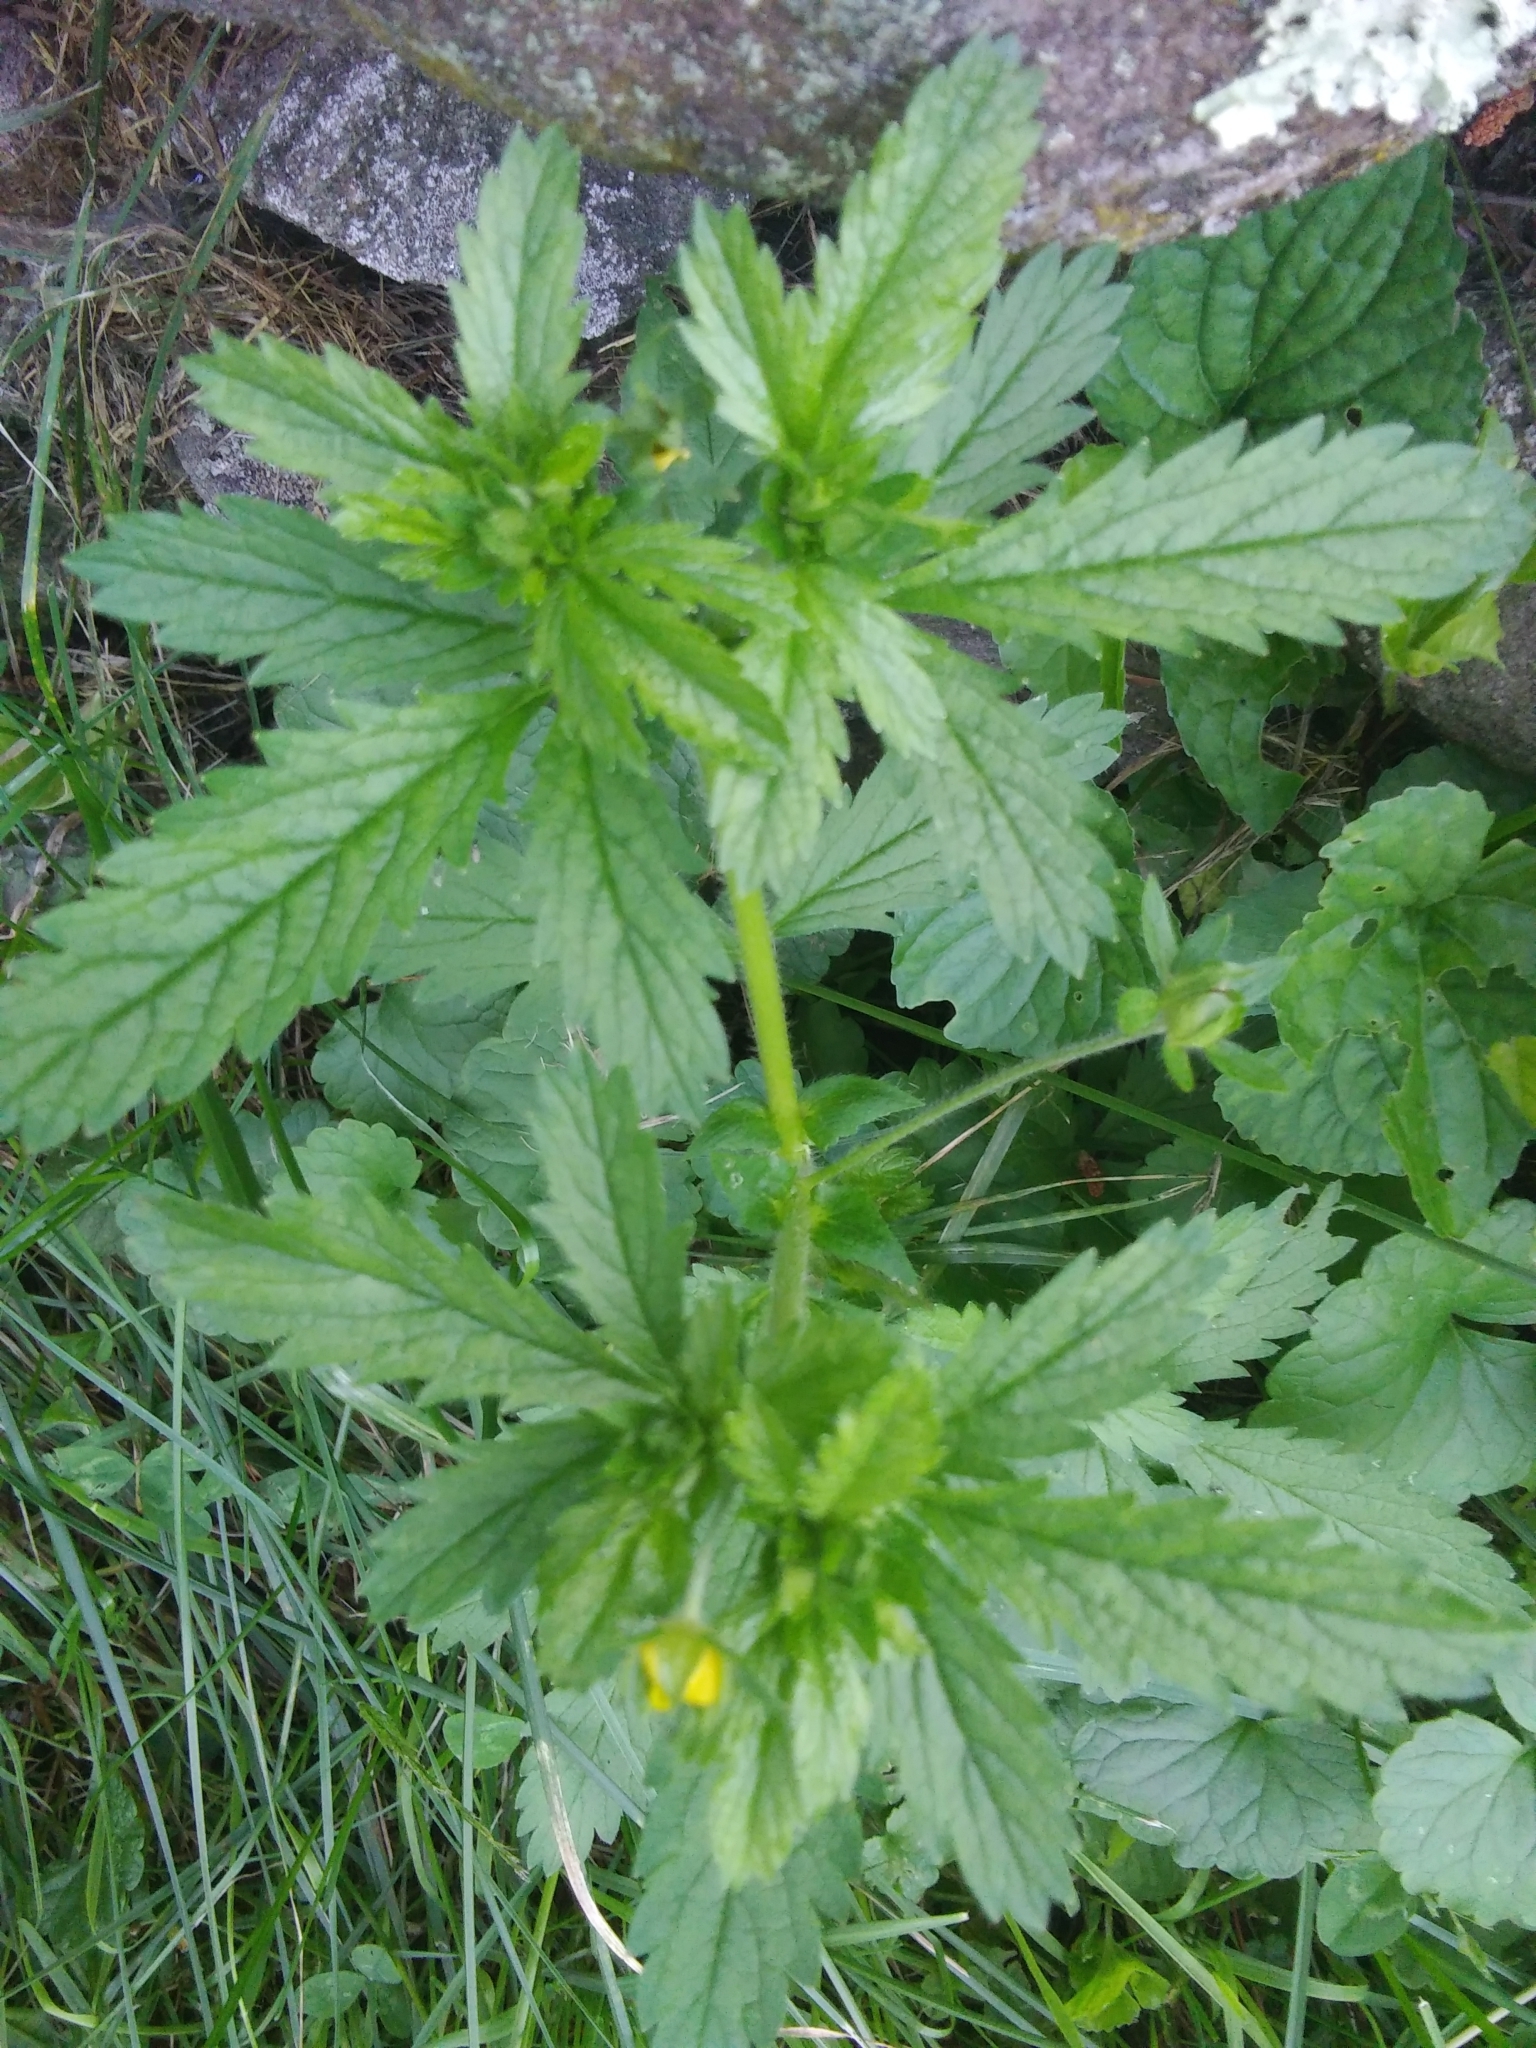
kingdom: Plantae
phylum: Tracheophyta
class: Magnoliopsida
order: Rosales
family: Rosaceae
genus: Potentilla
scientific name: Potentilla norvegica
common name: Ternate-leaved cinquefoil
